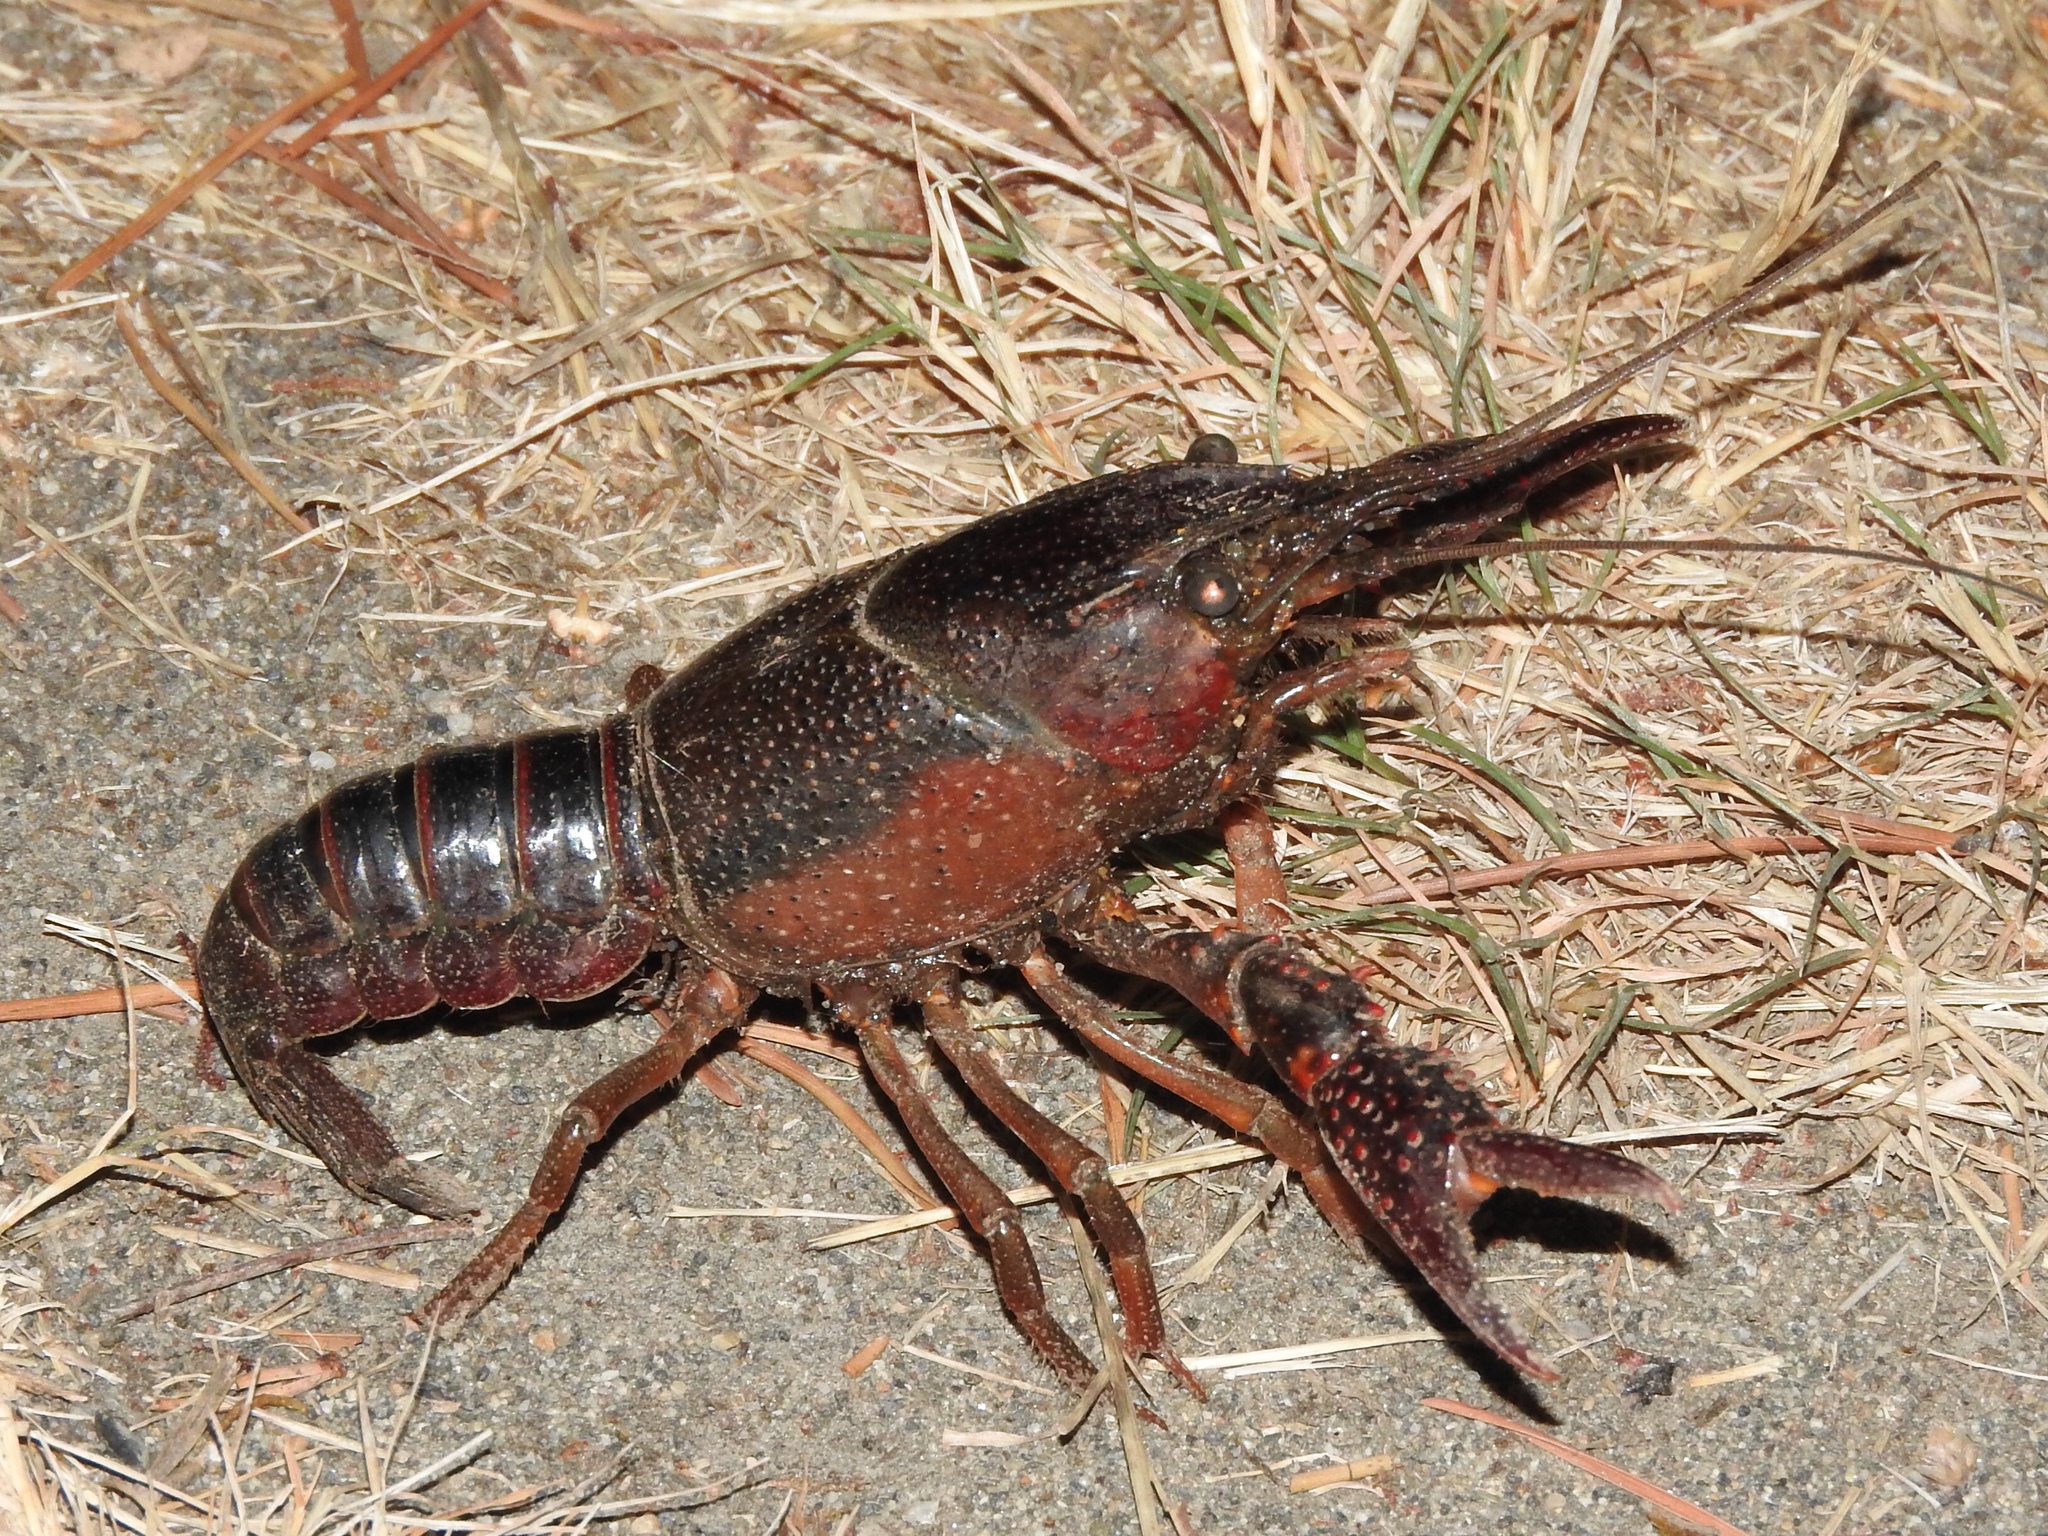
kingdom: Animalia
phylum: Arthropoda
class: Malacostraca
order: Decapoda
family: Cambaridae
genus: Procambarus
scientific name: Procambarus clarkii
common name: Red swamp crayfish
